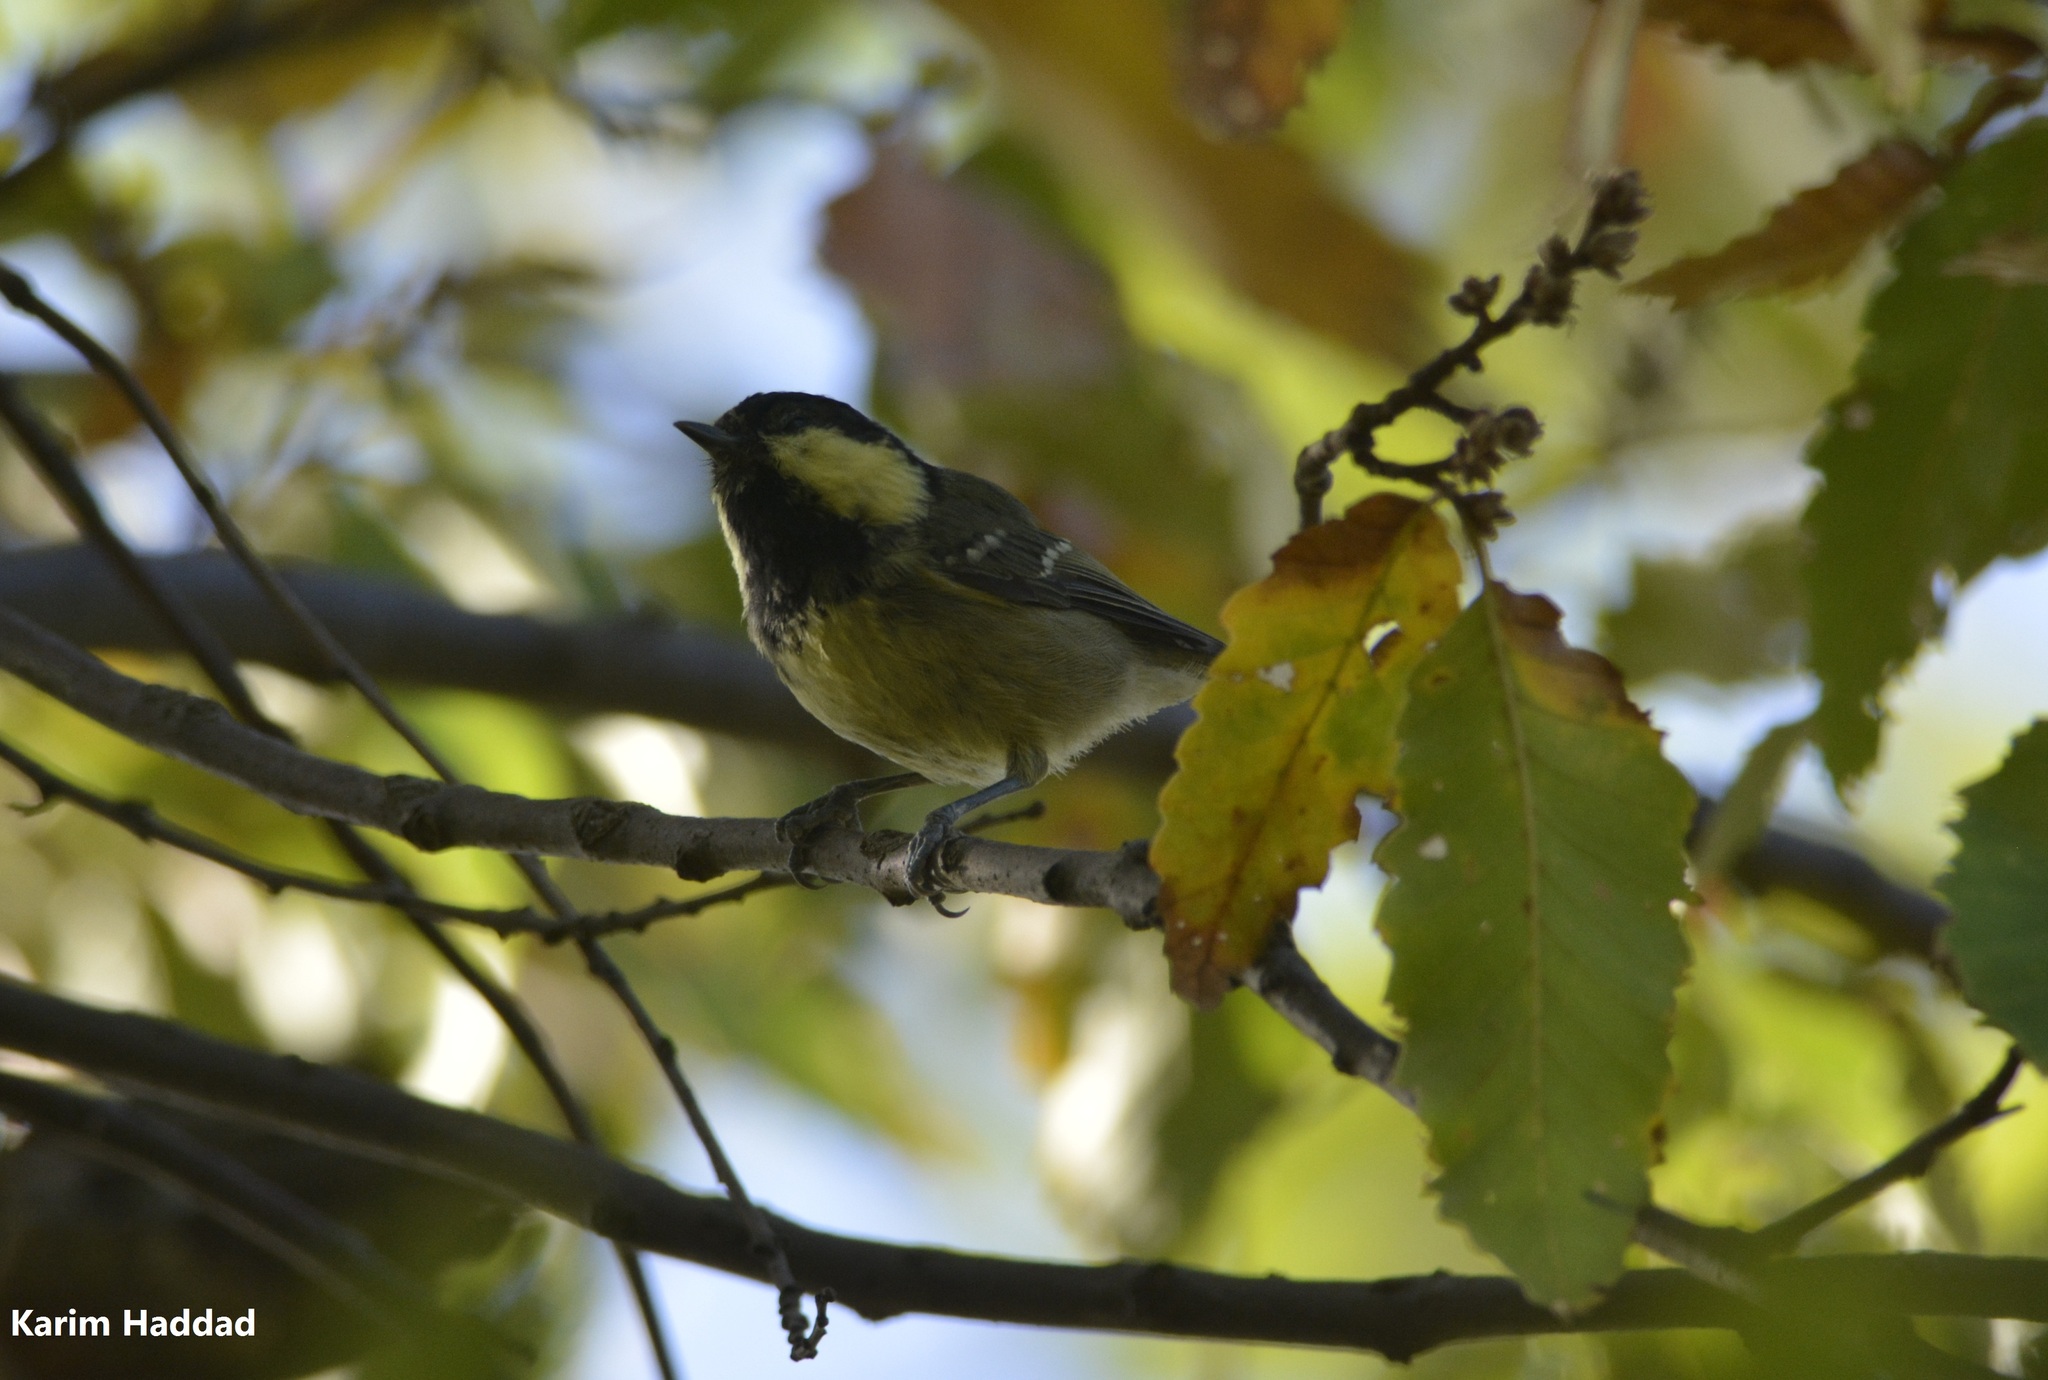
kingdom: Animalia
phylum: Chordata
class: Aves
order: Passeriformes
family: Paridae
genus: Periparus
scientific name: Periparus ater
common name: Coal tit
